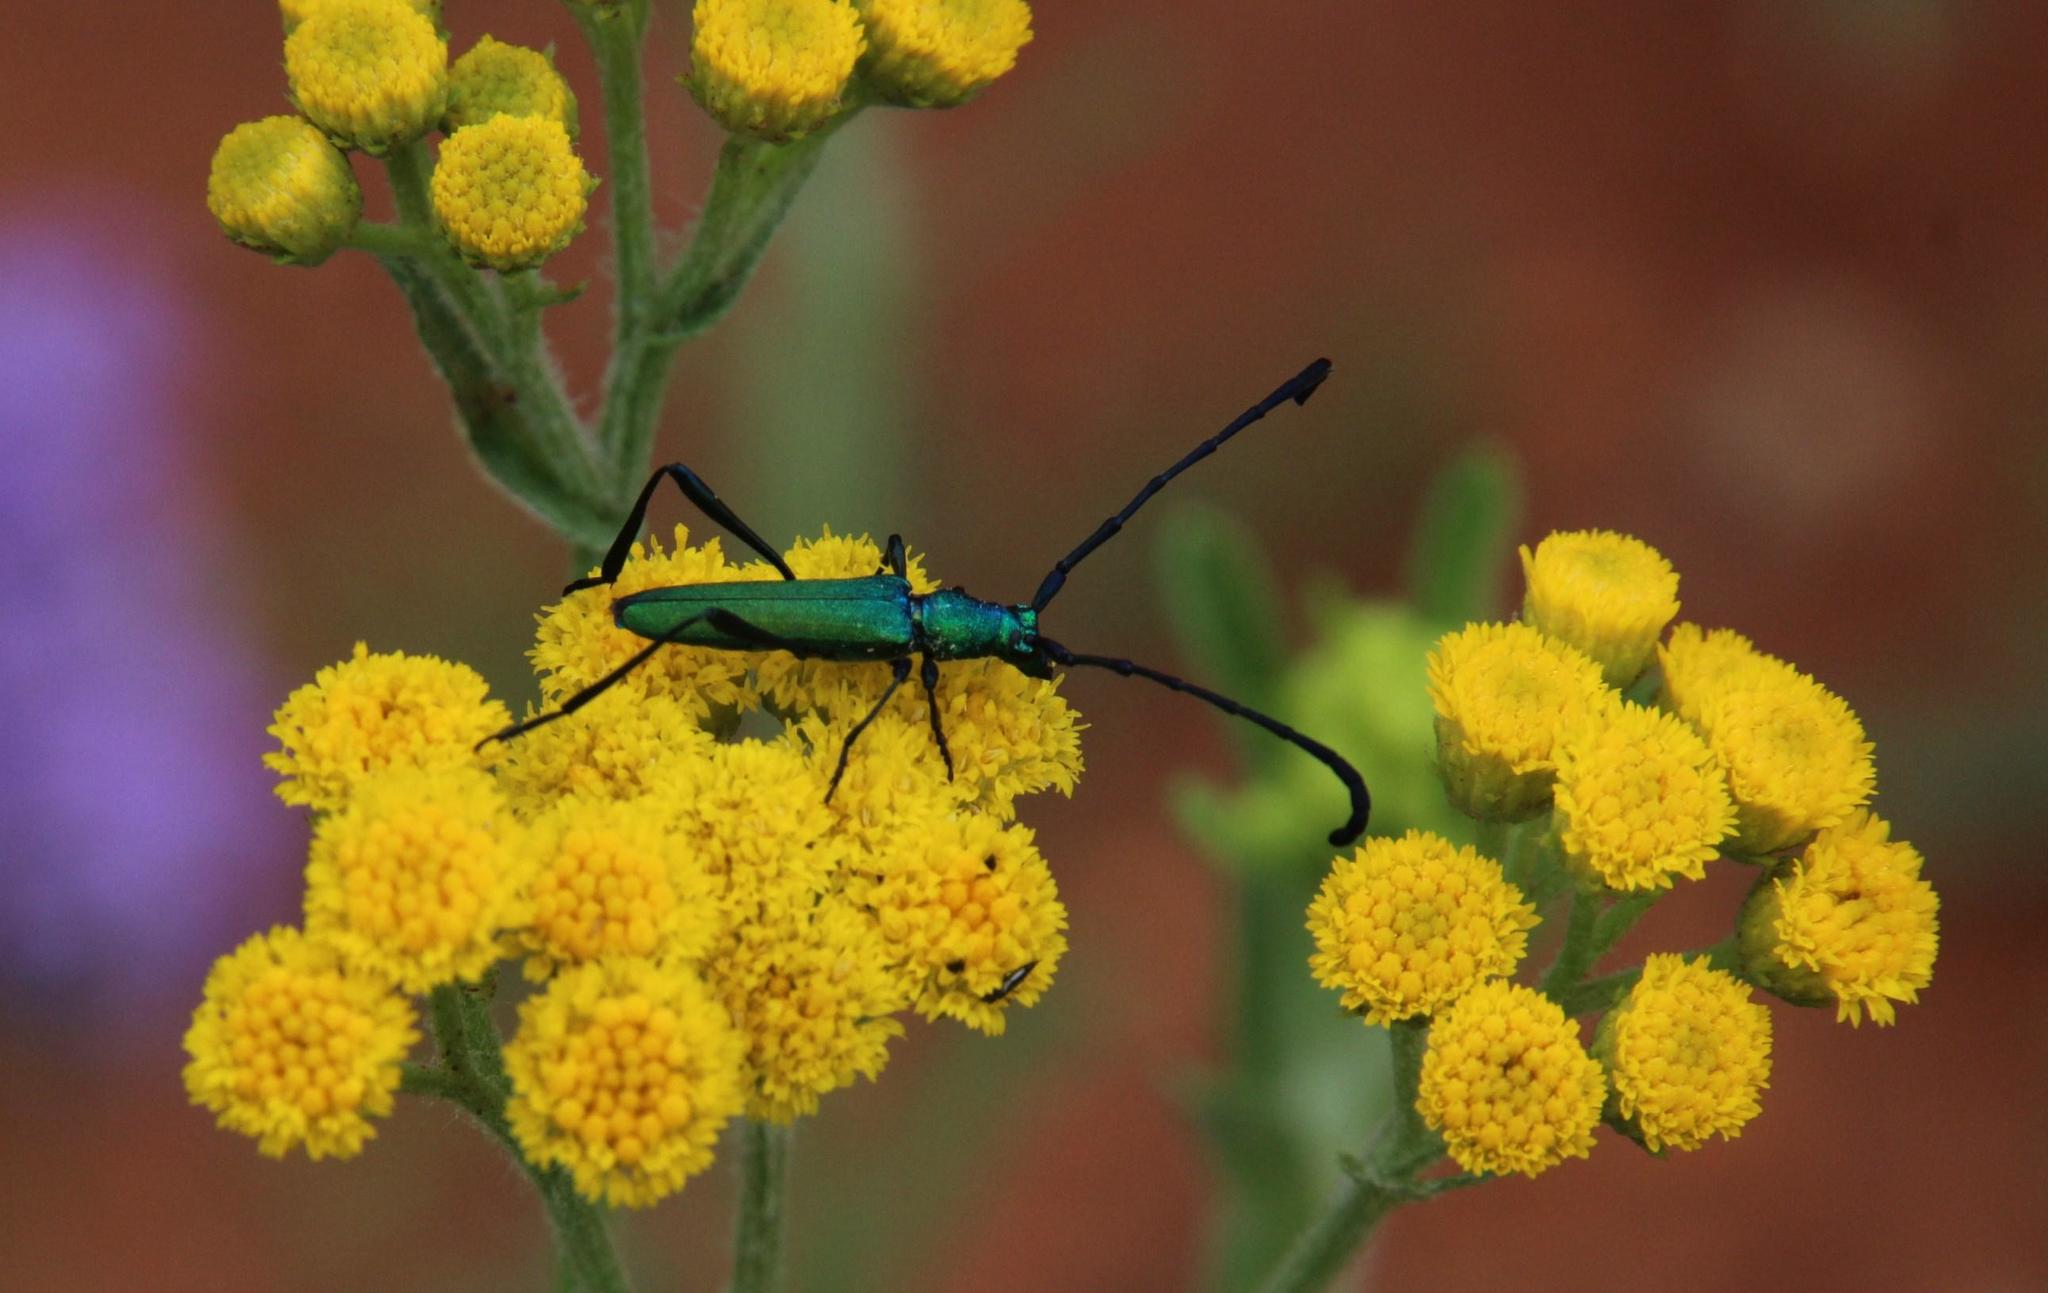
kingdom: Animalia
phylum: Arthropoda
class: Insecta
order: Coleoptera
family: Cerambycidae
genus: Hypocrites
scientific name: Hypocrites
